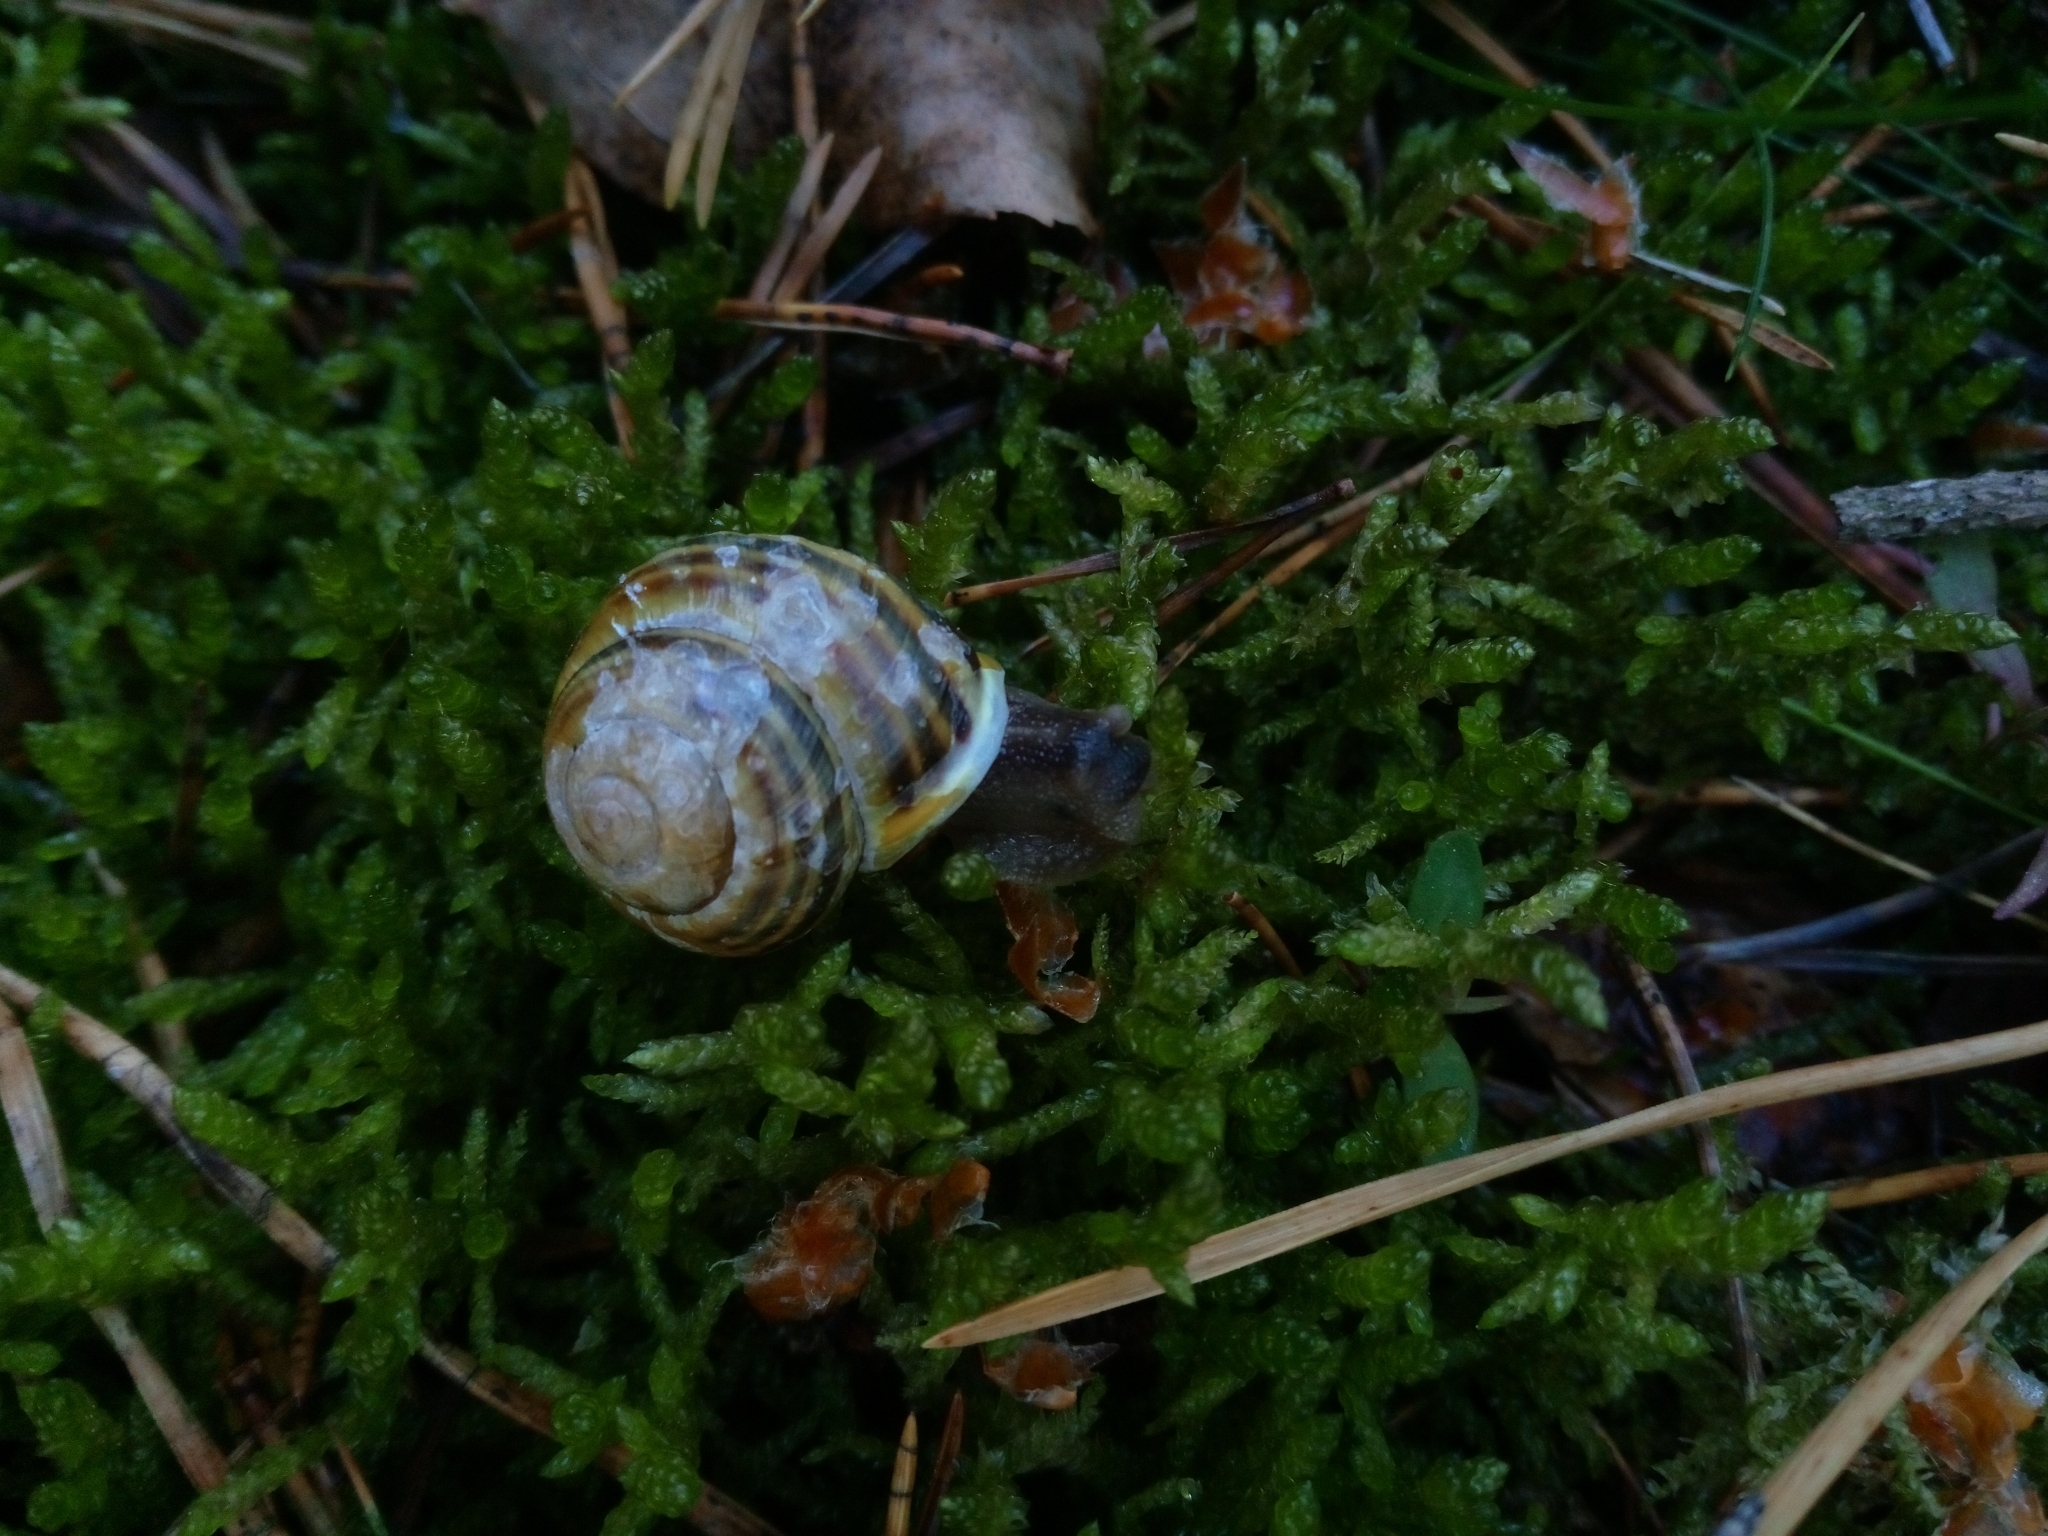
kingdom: Animalia
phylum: Mollusca
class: Gastropoda
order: Stylommatophora
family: Helicidae
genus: Cepaea
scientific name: Cepaea hortensis
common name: White-lip gardensnail
